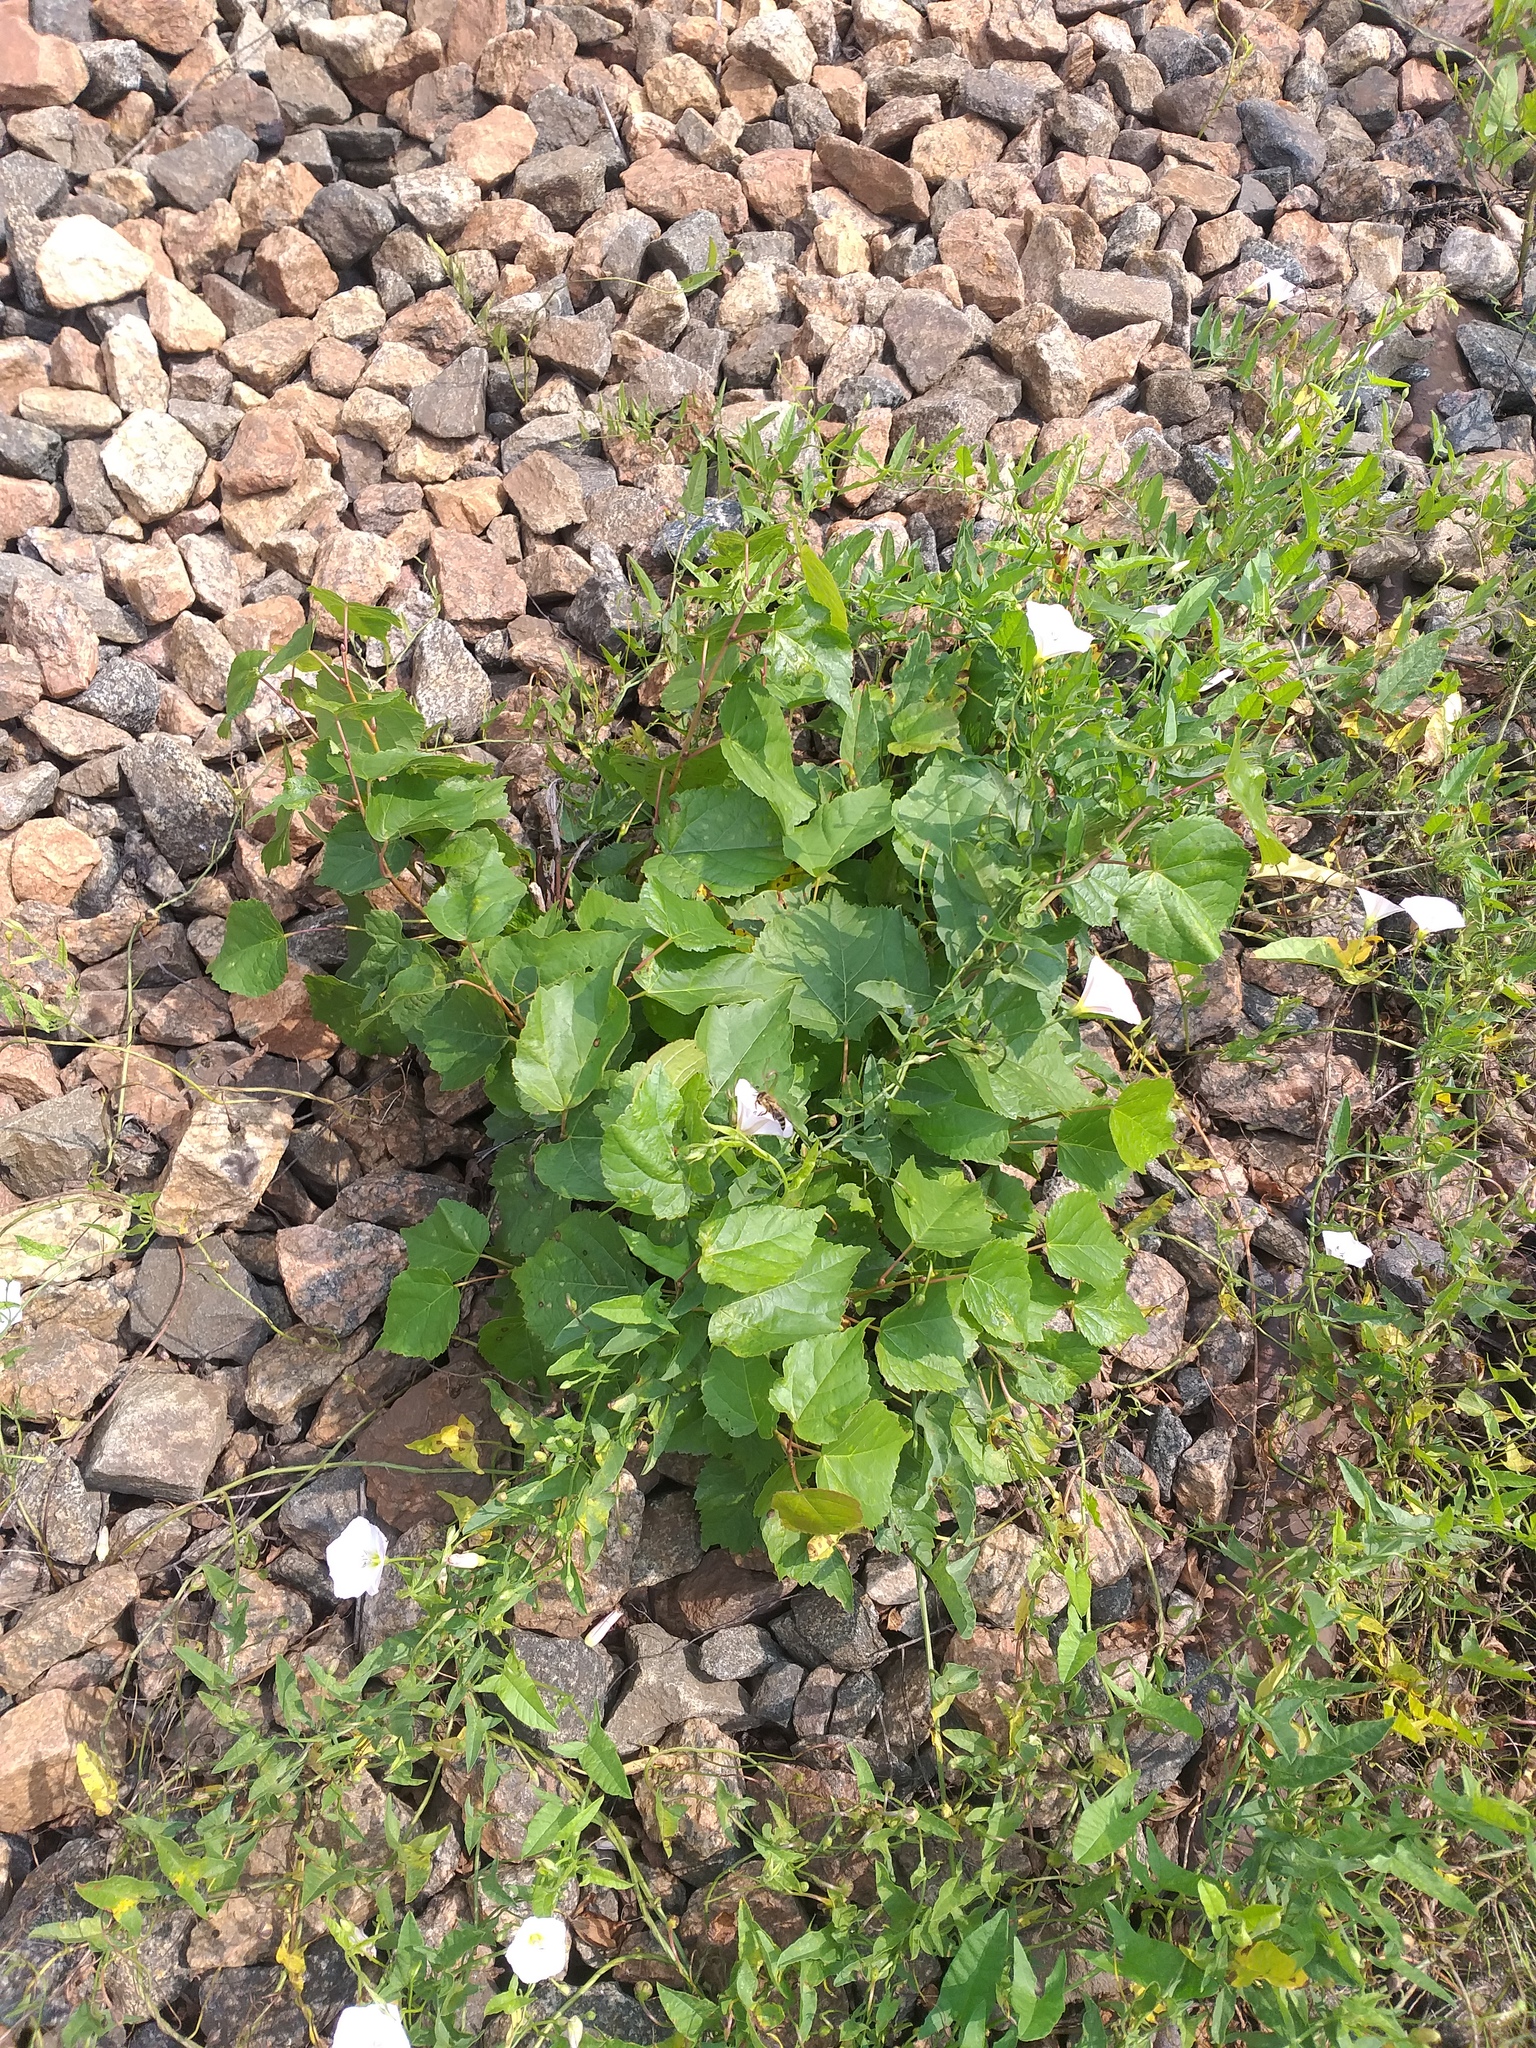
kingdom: Plantae
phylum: Tracheophyta
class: Magnoliopsida
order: Malvales
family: Malvaceae
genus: Tilia
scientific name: Tilia cordata
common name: Small-leaved lime
